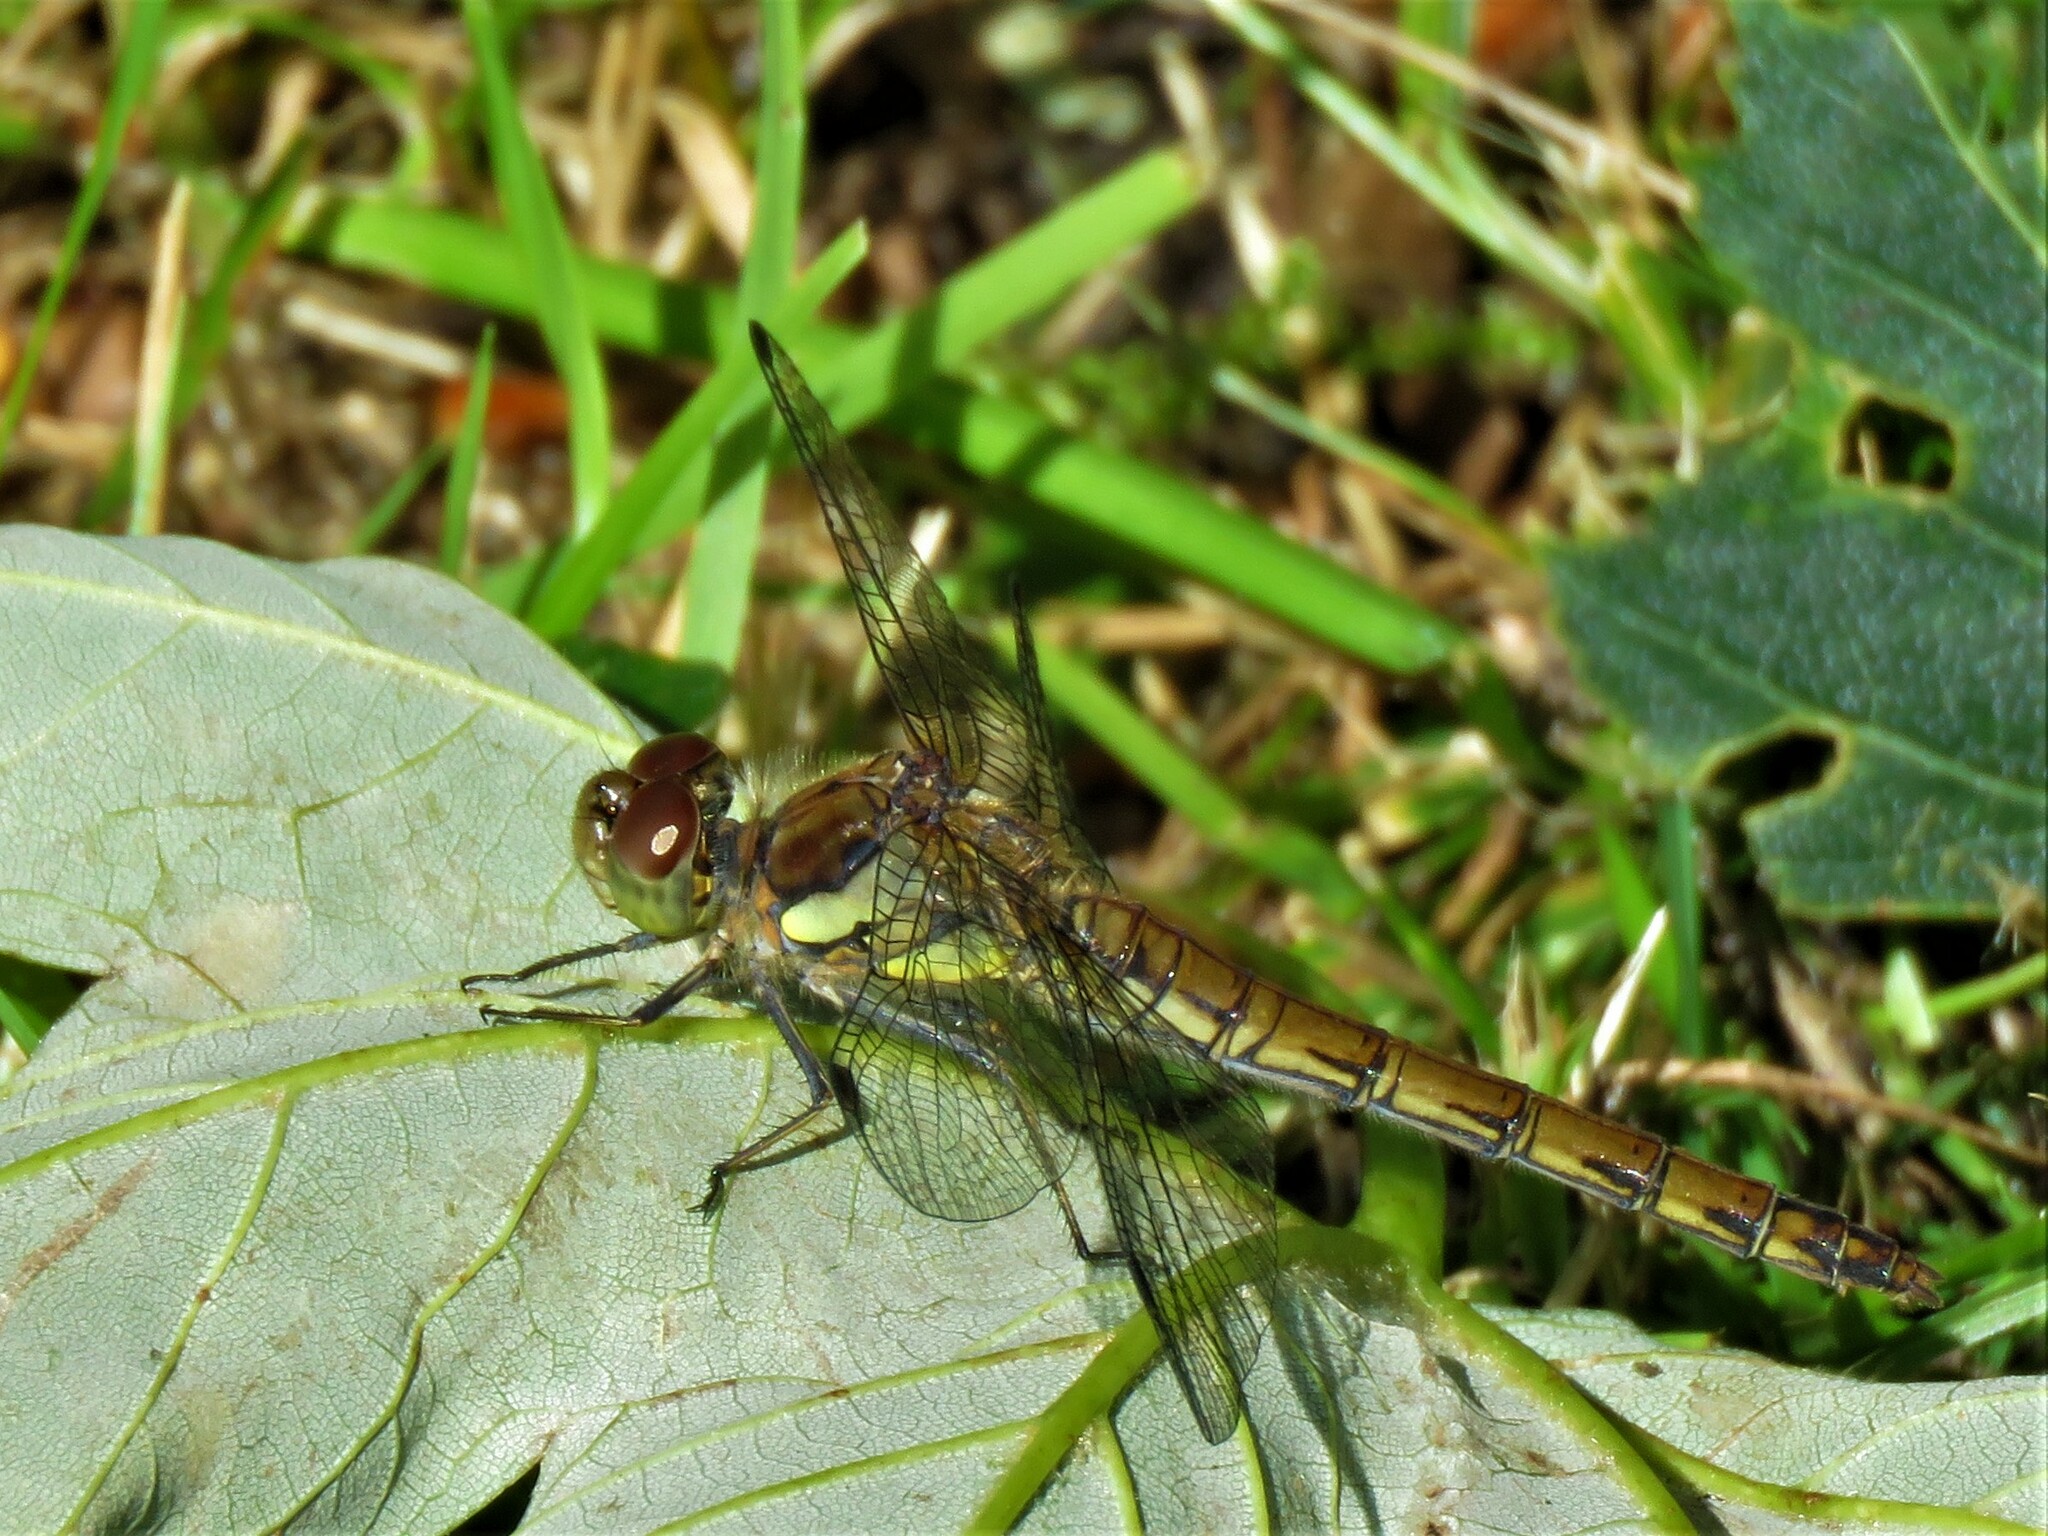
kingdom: Animalia
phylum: Arthropoda
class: Insecta
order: Odonata
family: Libellulidae
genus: Sympetrum
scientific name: Sympetrum striolatum
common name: Common darter
